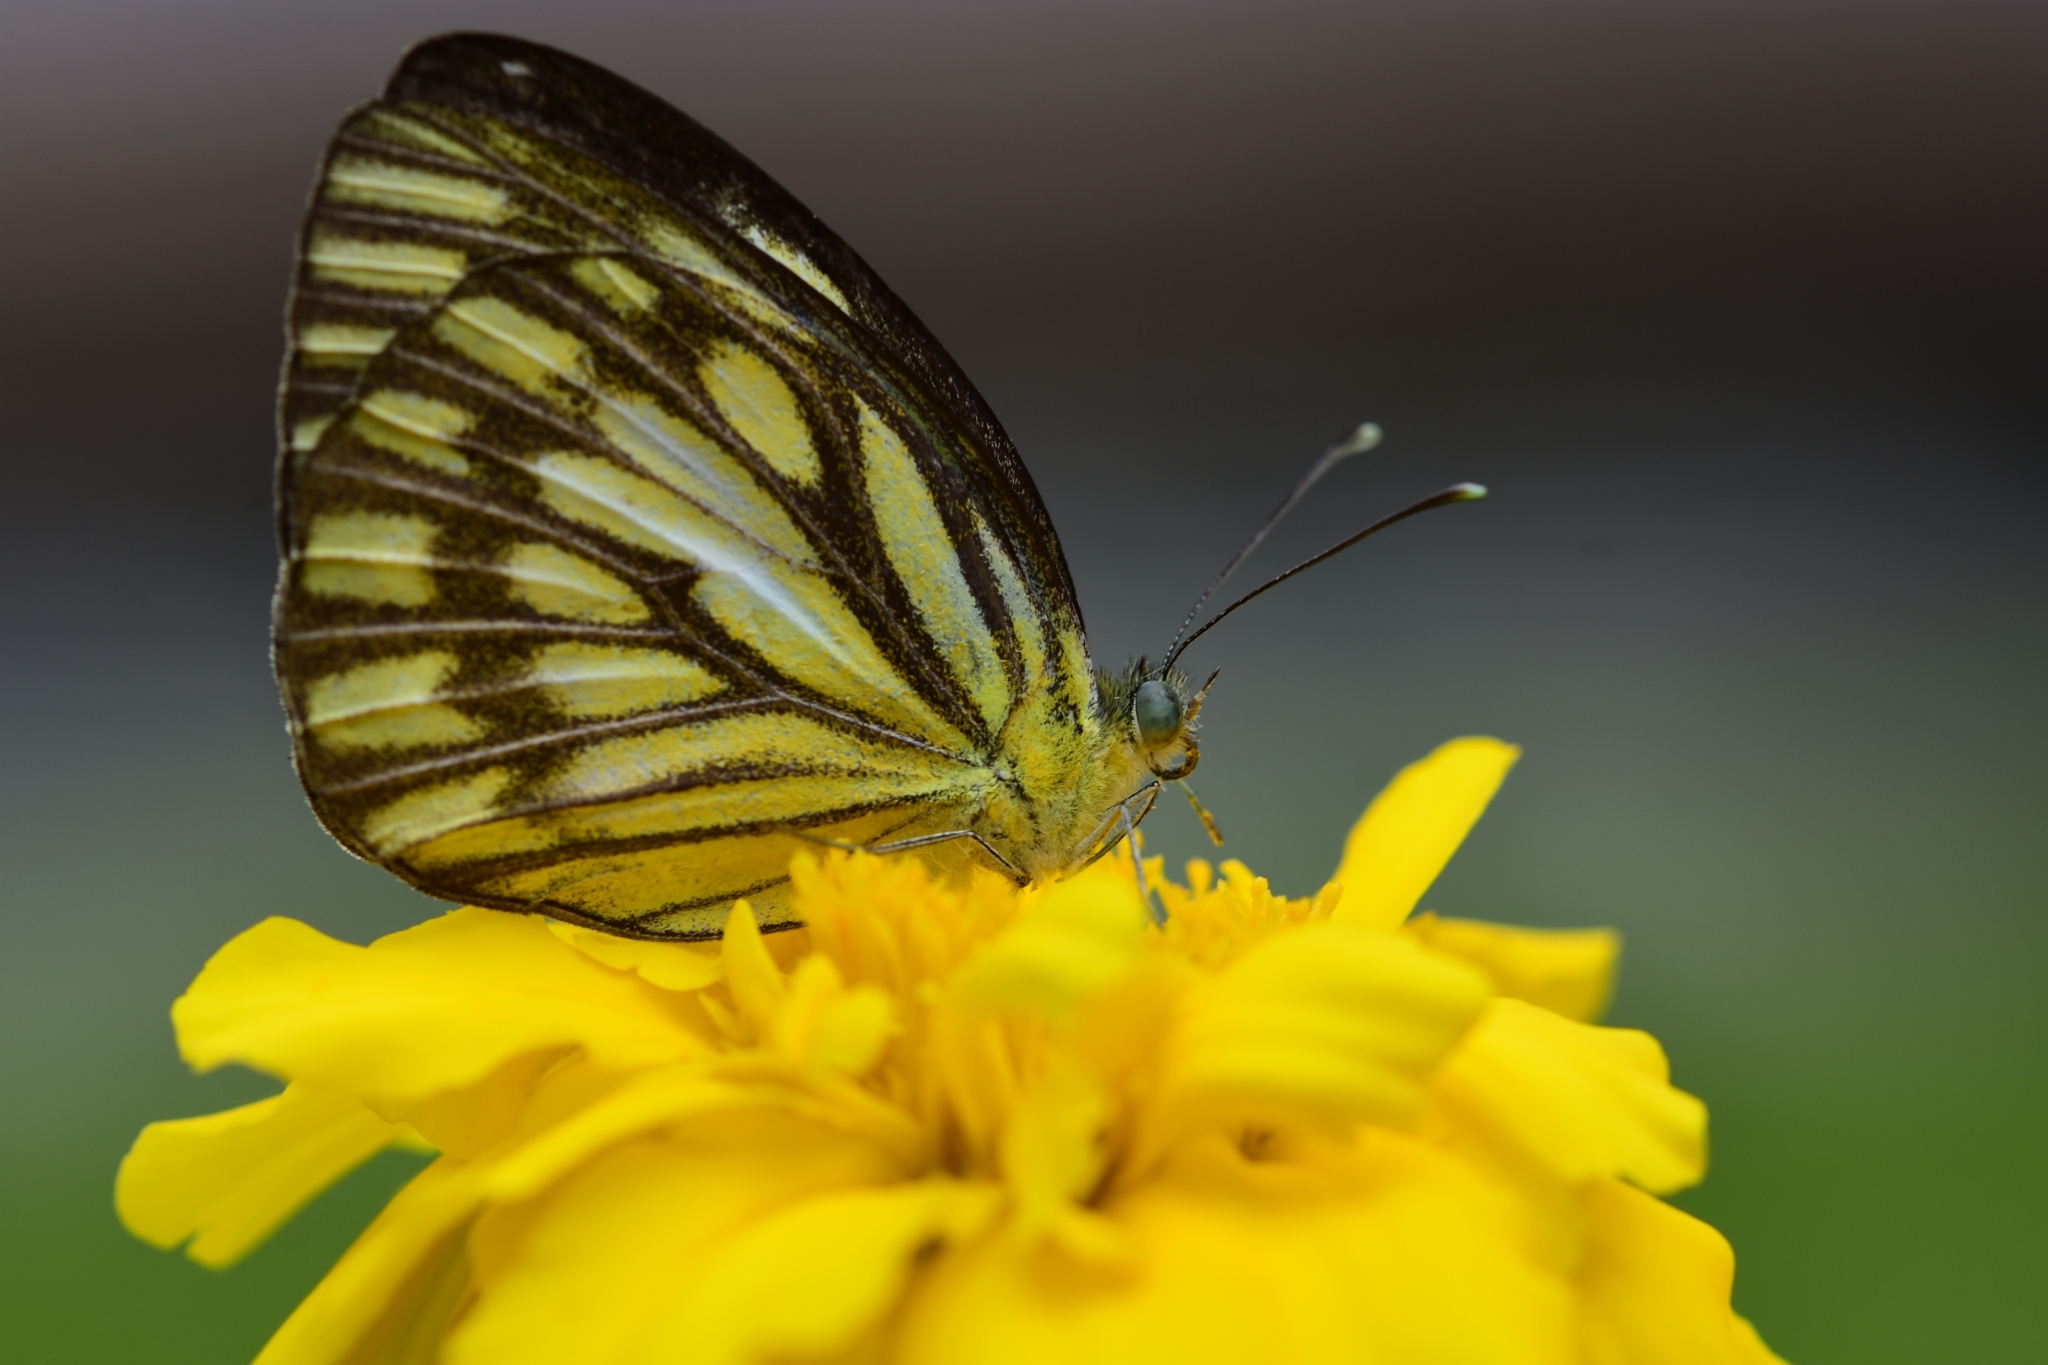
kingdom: Animalia
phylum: Arthropoda
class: Insecta
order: Lepidoptera
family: Pieridae
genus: Cepora
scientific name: Cepora nerissa
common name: Common gull
